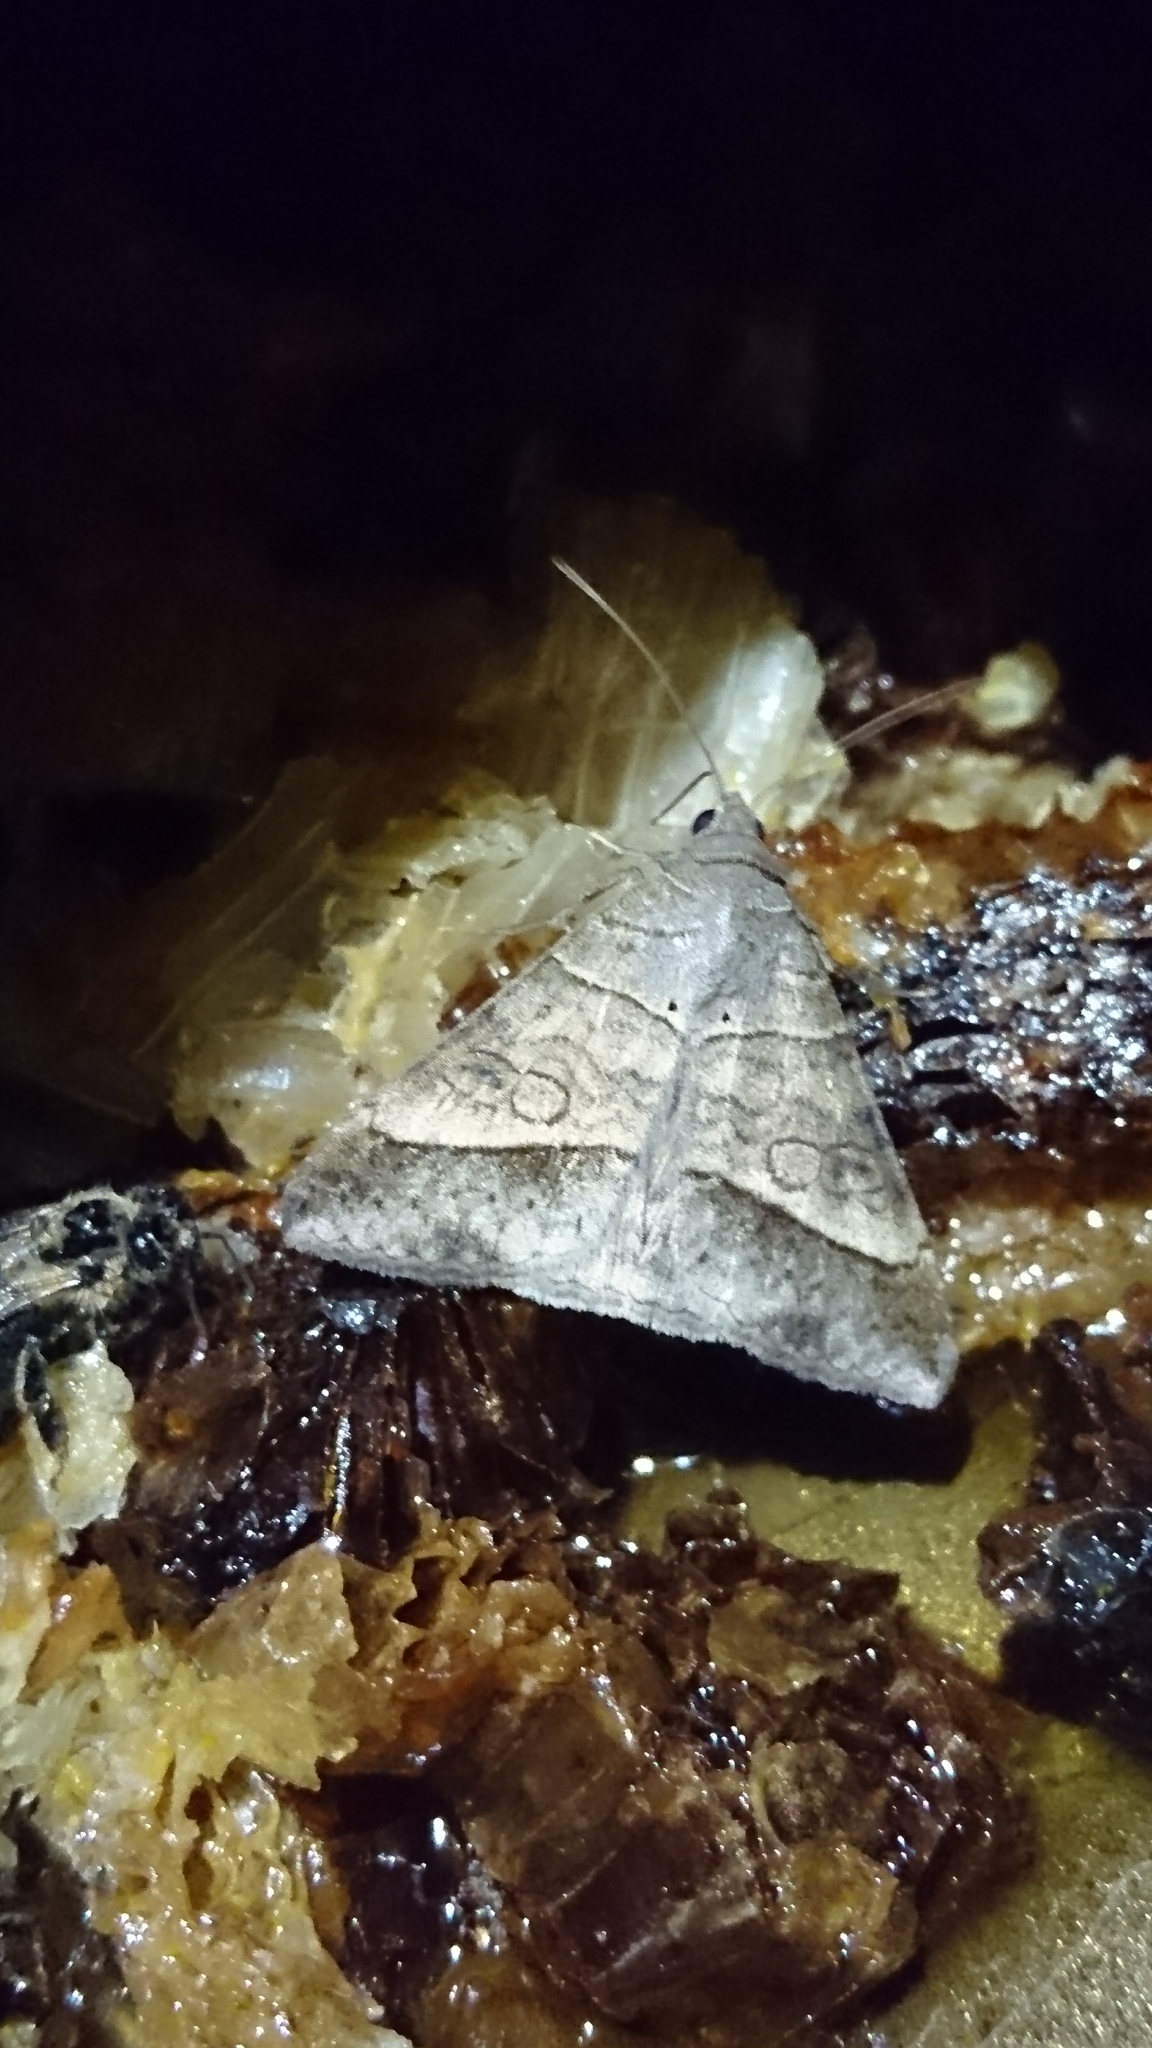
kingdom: Animalia
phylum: Arthropoda
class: Insecta
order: Lepidoptera
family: Erebidae
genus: Mocis
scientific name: Mocis latipes
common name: Striped grass looper
